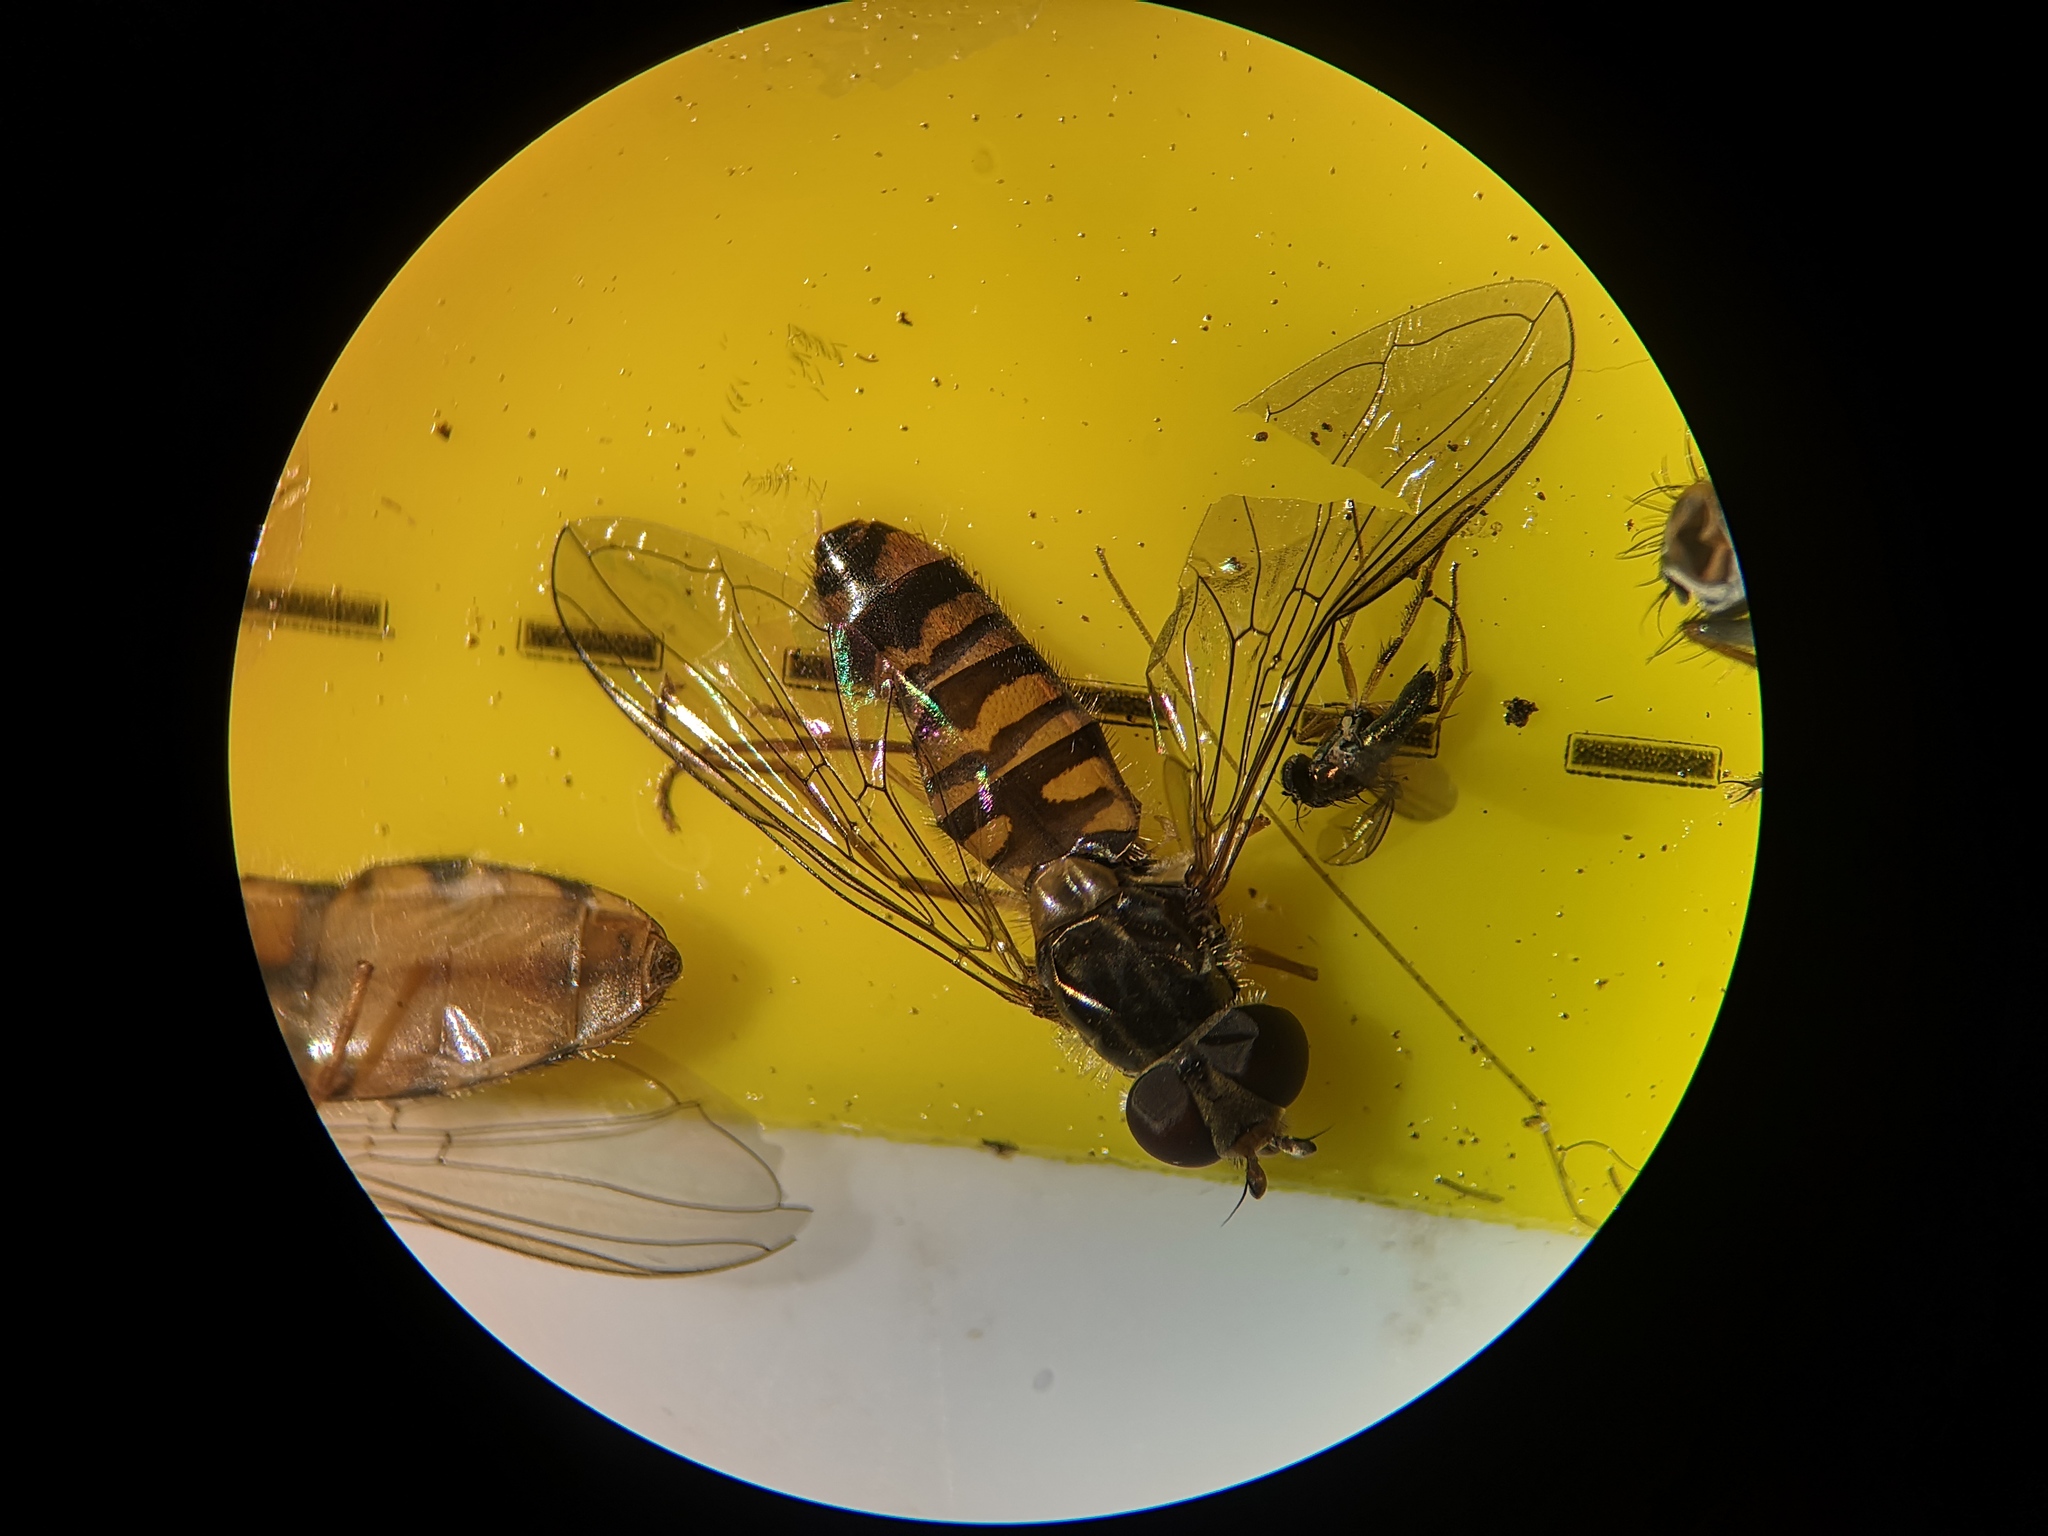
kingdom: Animalia
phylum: Arthropoda
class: Insecta
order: Diptera
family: Syrphidae
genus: Episyrphus
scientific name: Episyrphus balteatus
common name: Marmalade hoverfly
